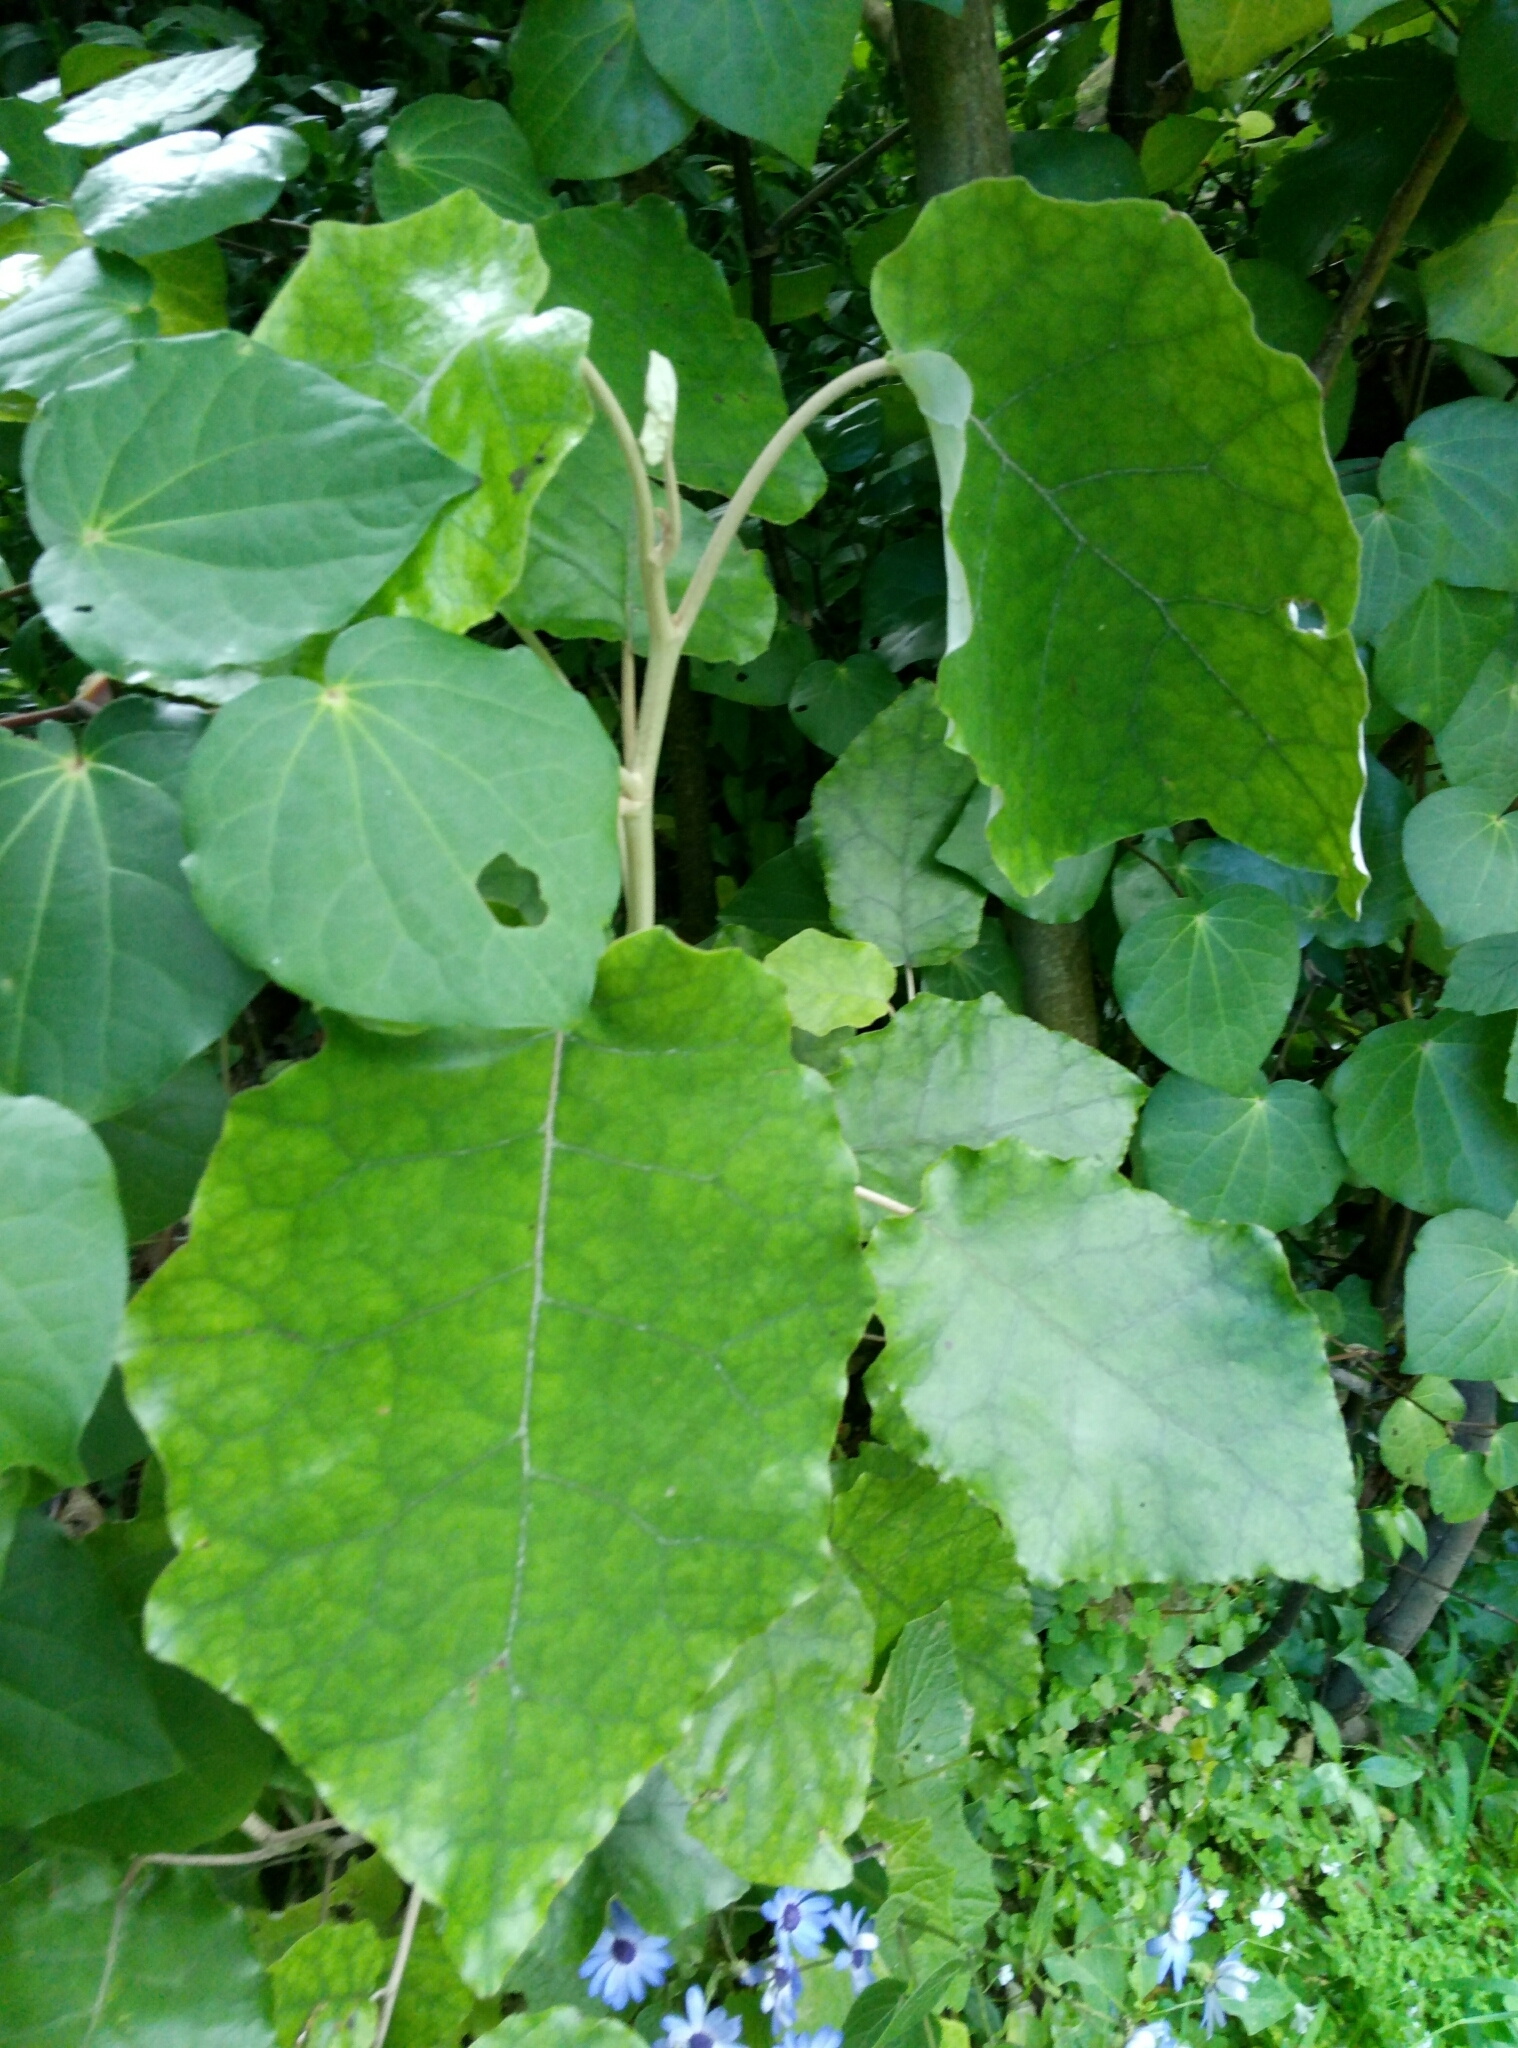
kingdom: Plantae
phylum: Tracheophyta
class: Magnoliopsida
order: Asterales
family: Asteraceae
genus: Brachyglottis
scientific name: Brachyglottis repanda
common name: Hedge ragwort
